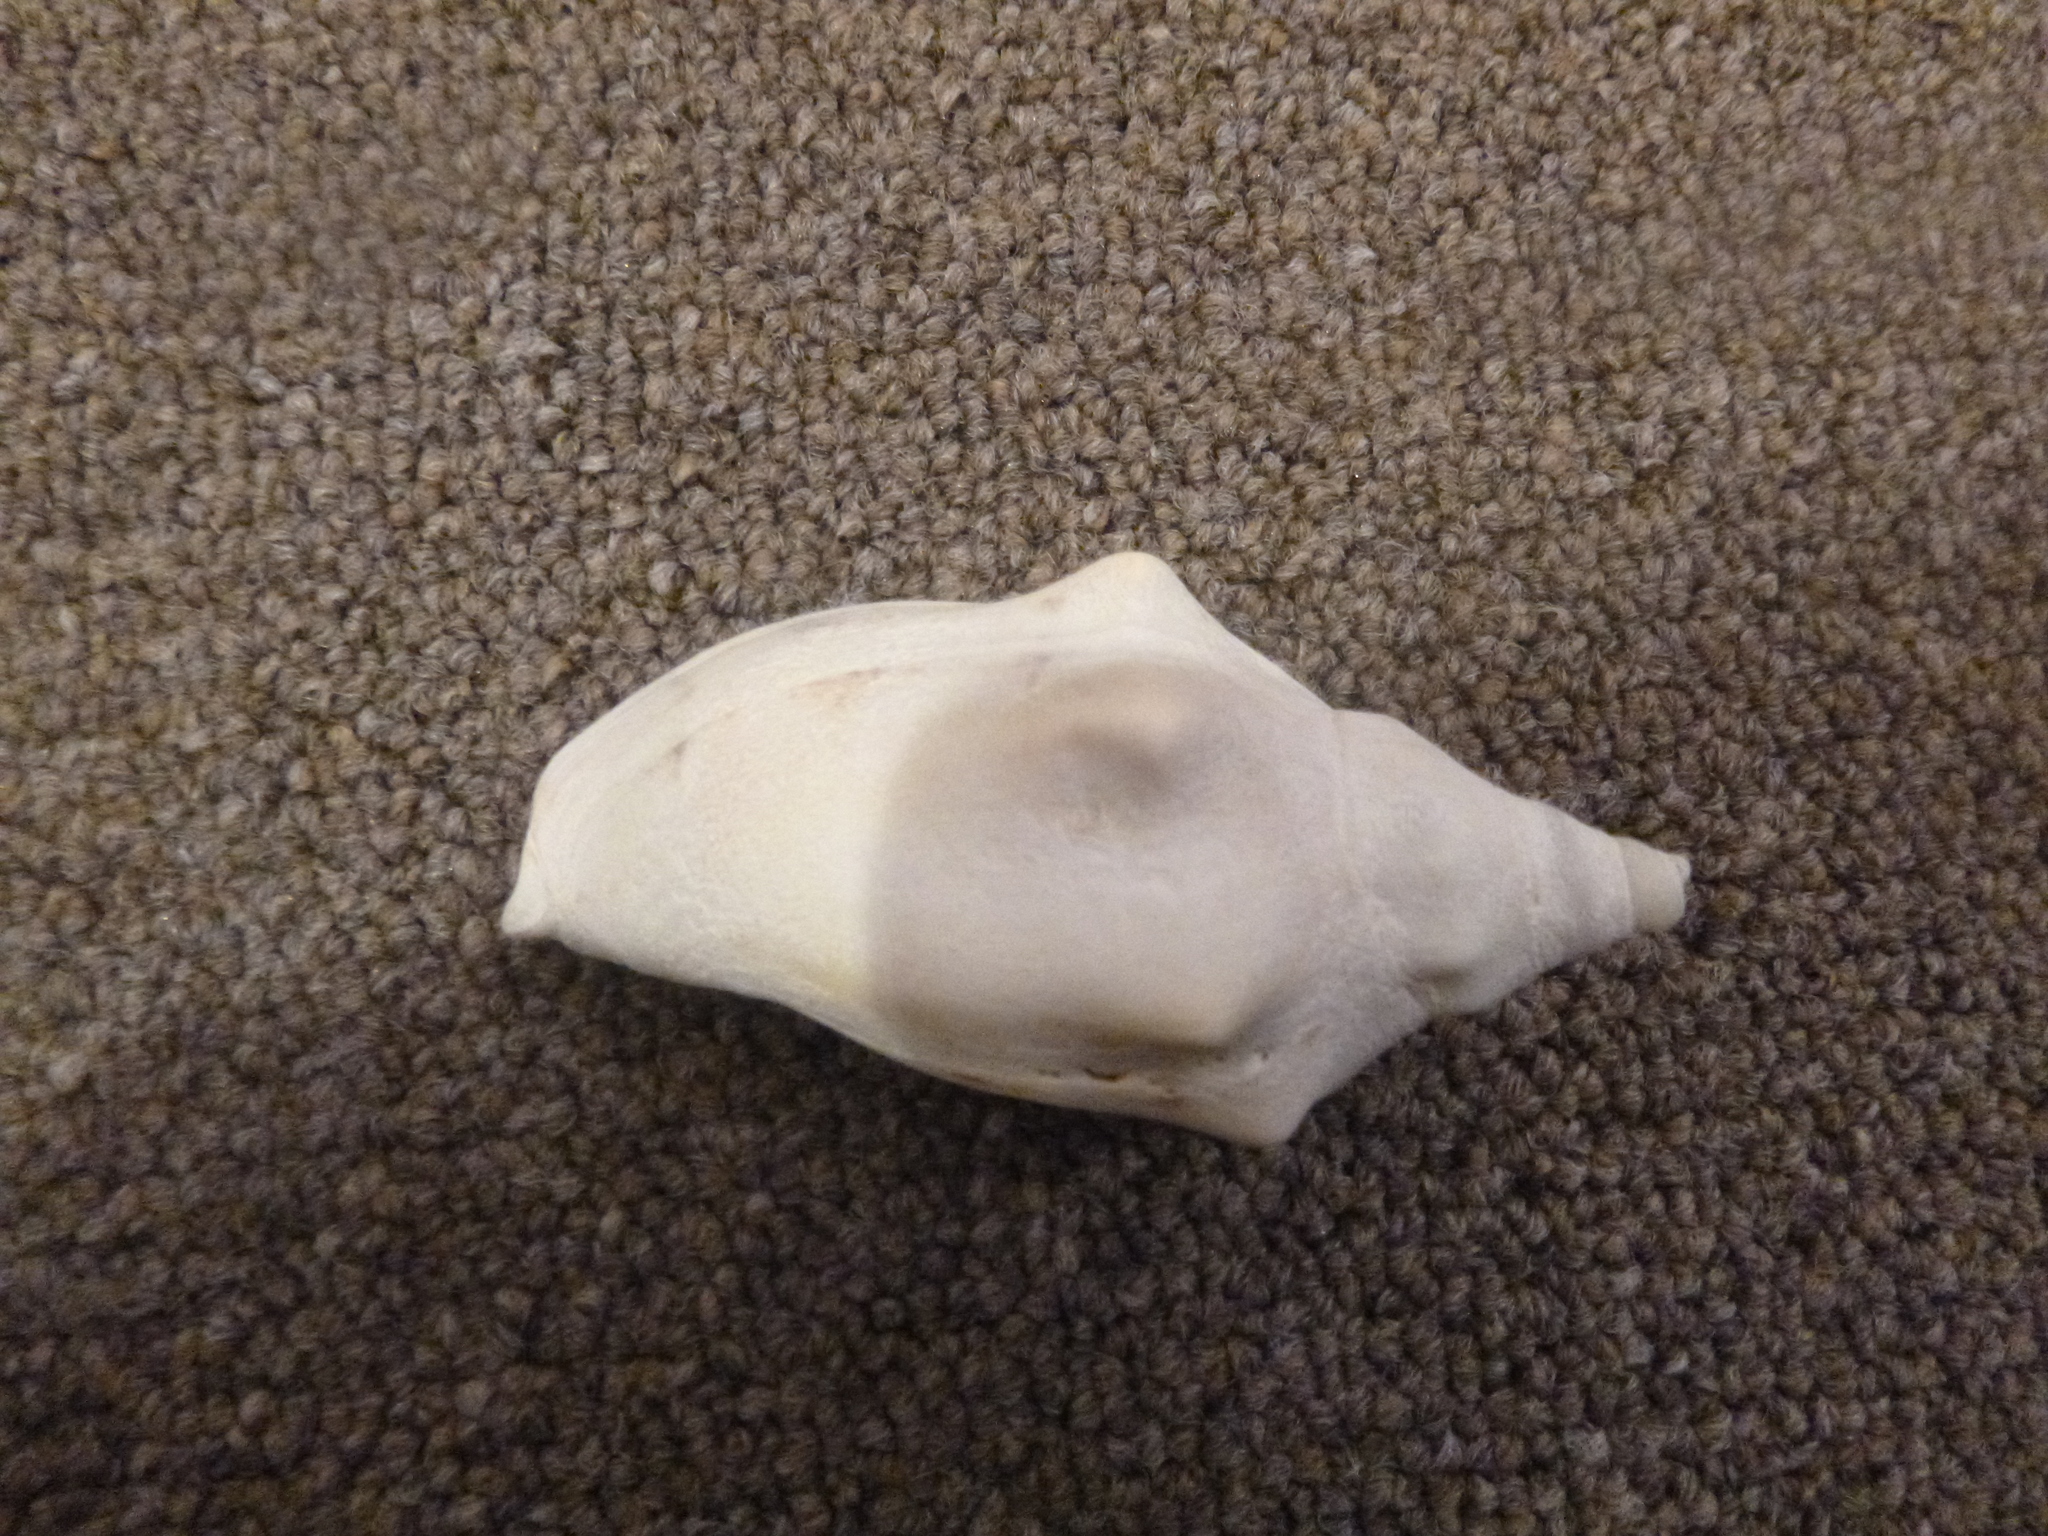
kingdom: Animalia
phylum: Mollusca
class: Gastropoda
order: Neogastropoda
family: Volutidae
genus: Alcithoe
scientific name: Alcithoe arabica
